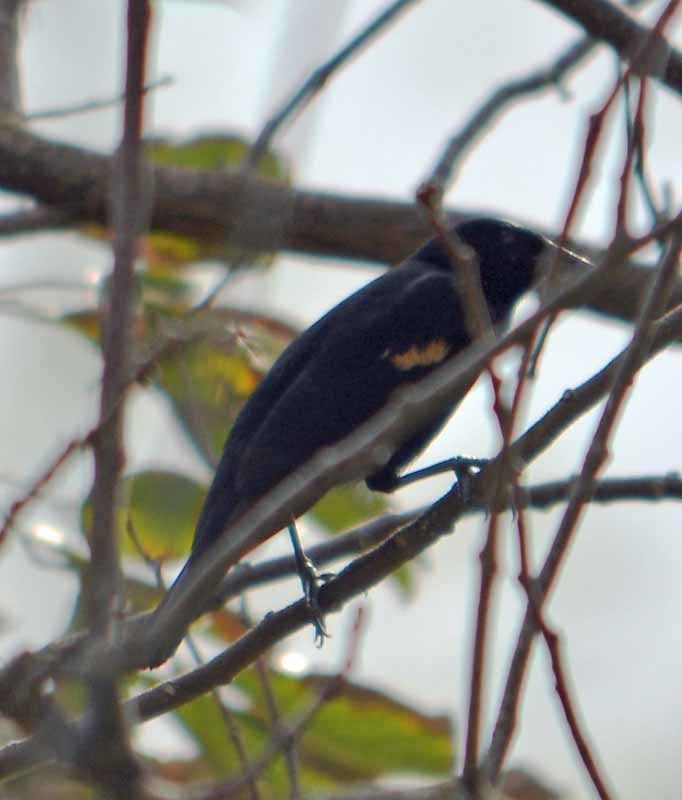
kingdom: Animalia
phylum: Chordata
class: Aves
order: Passeriformes
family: Icteridae
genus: Agelaius
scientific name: Agelaius phoeniceus
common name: Red-winged blackbird
